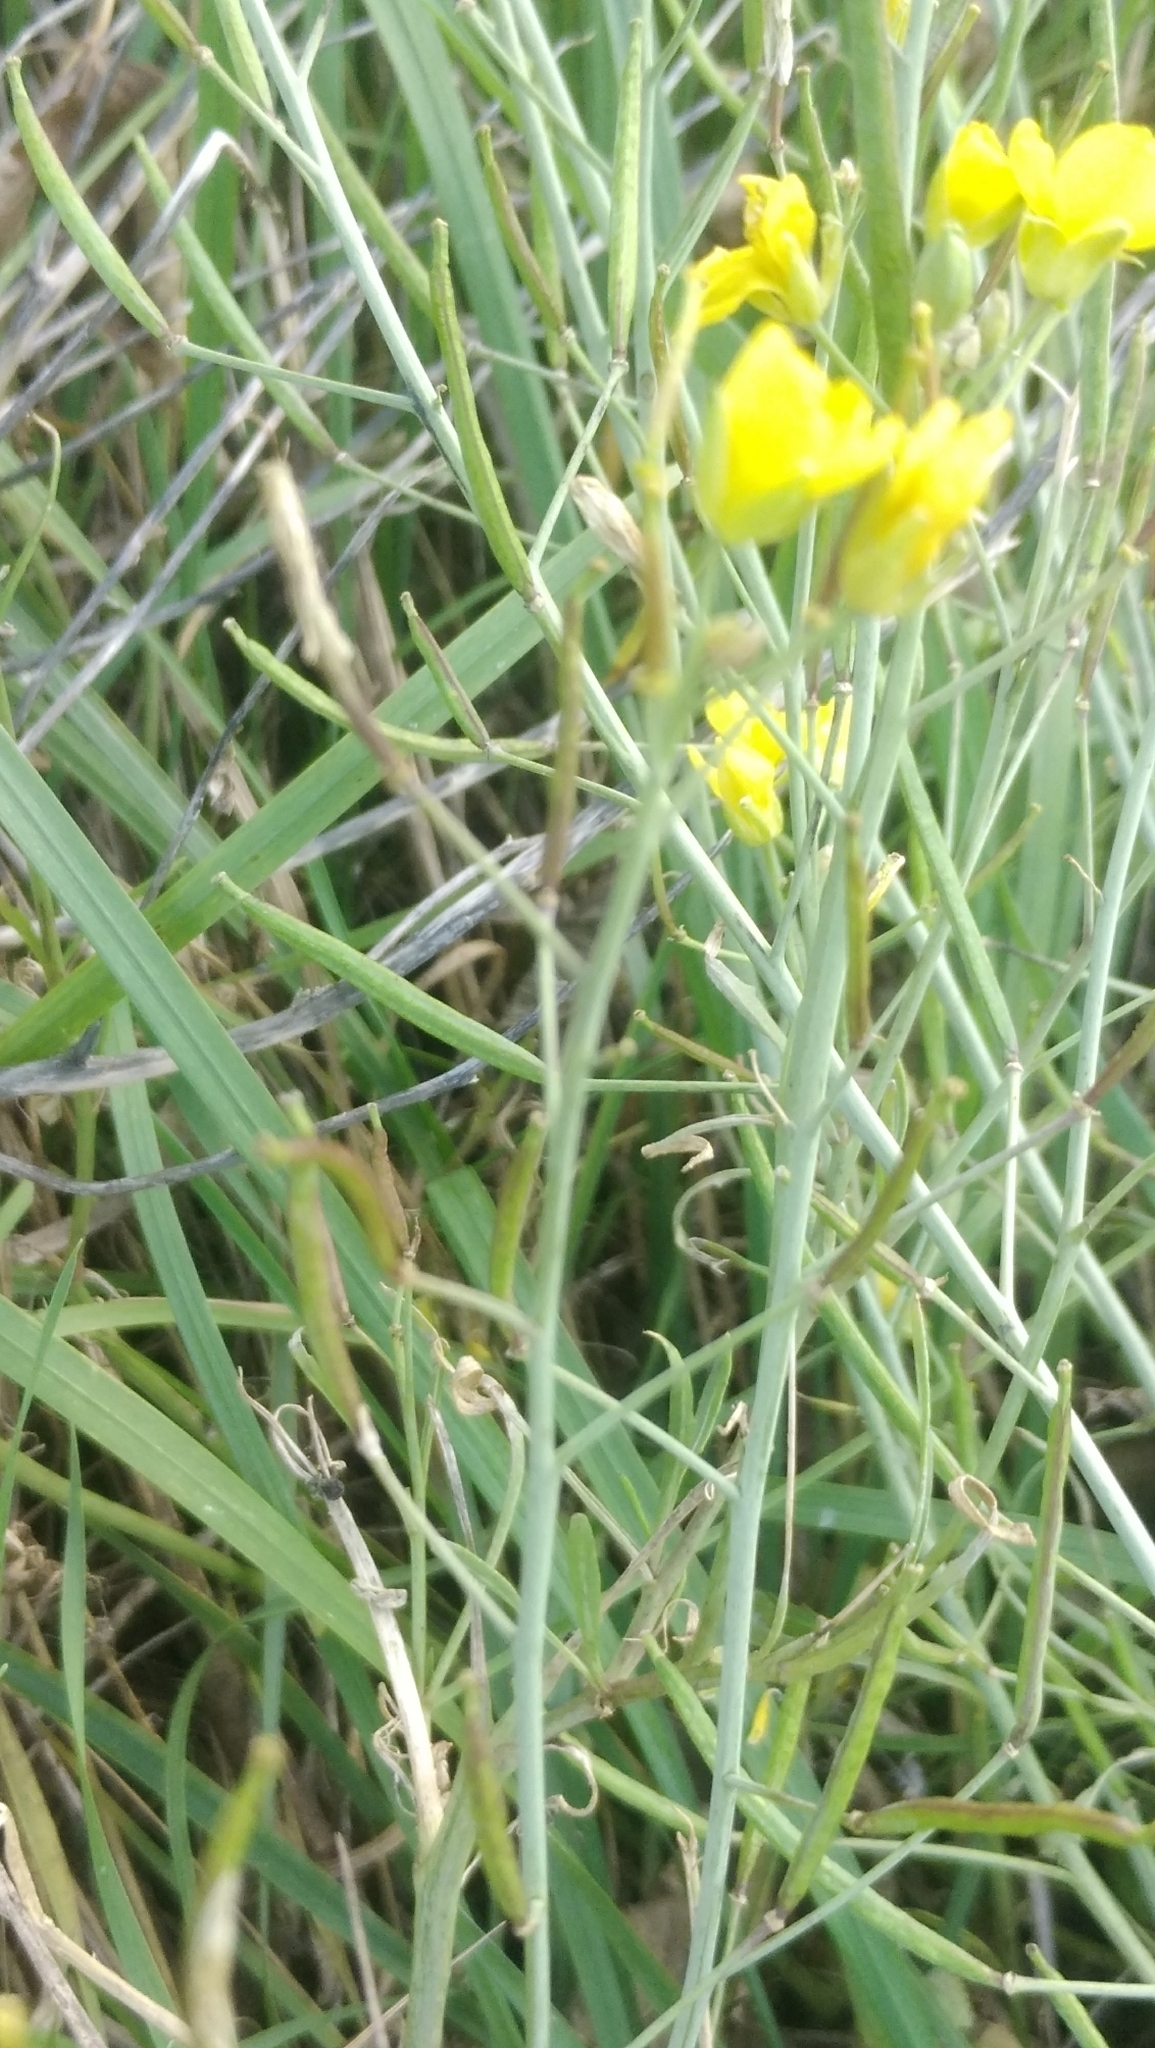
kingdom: Plantae
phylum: Tracheophyta
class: Magnoliopsida
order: Brassicales
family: Brassicaceae
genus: Diplotaxis
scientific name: Diplotaxis tenuifolia
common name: Perennial wall-rocket
